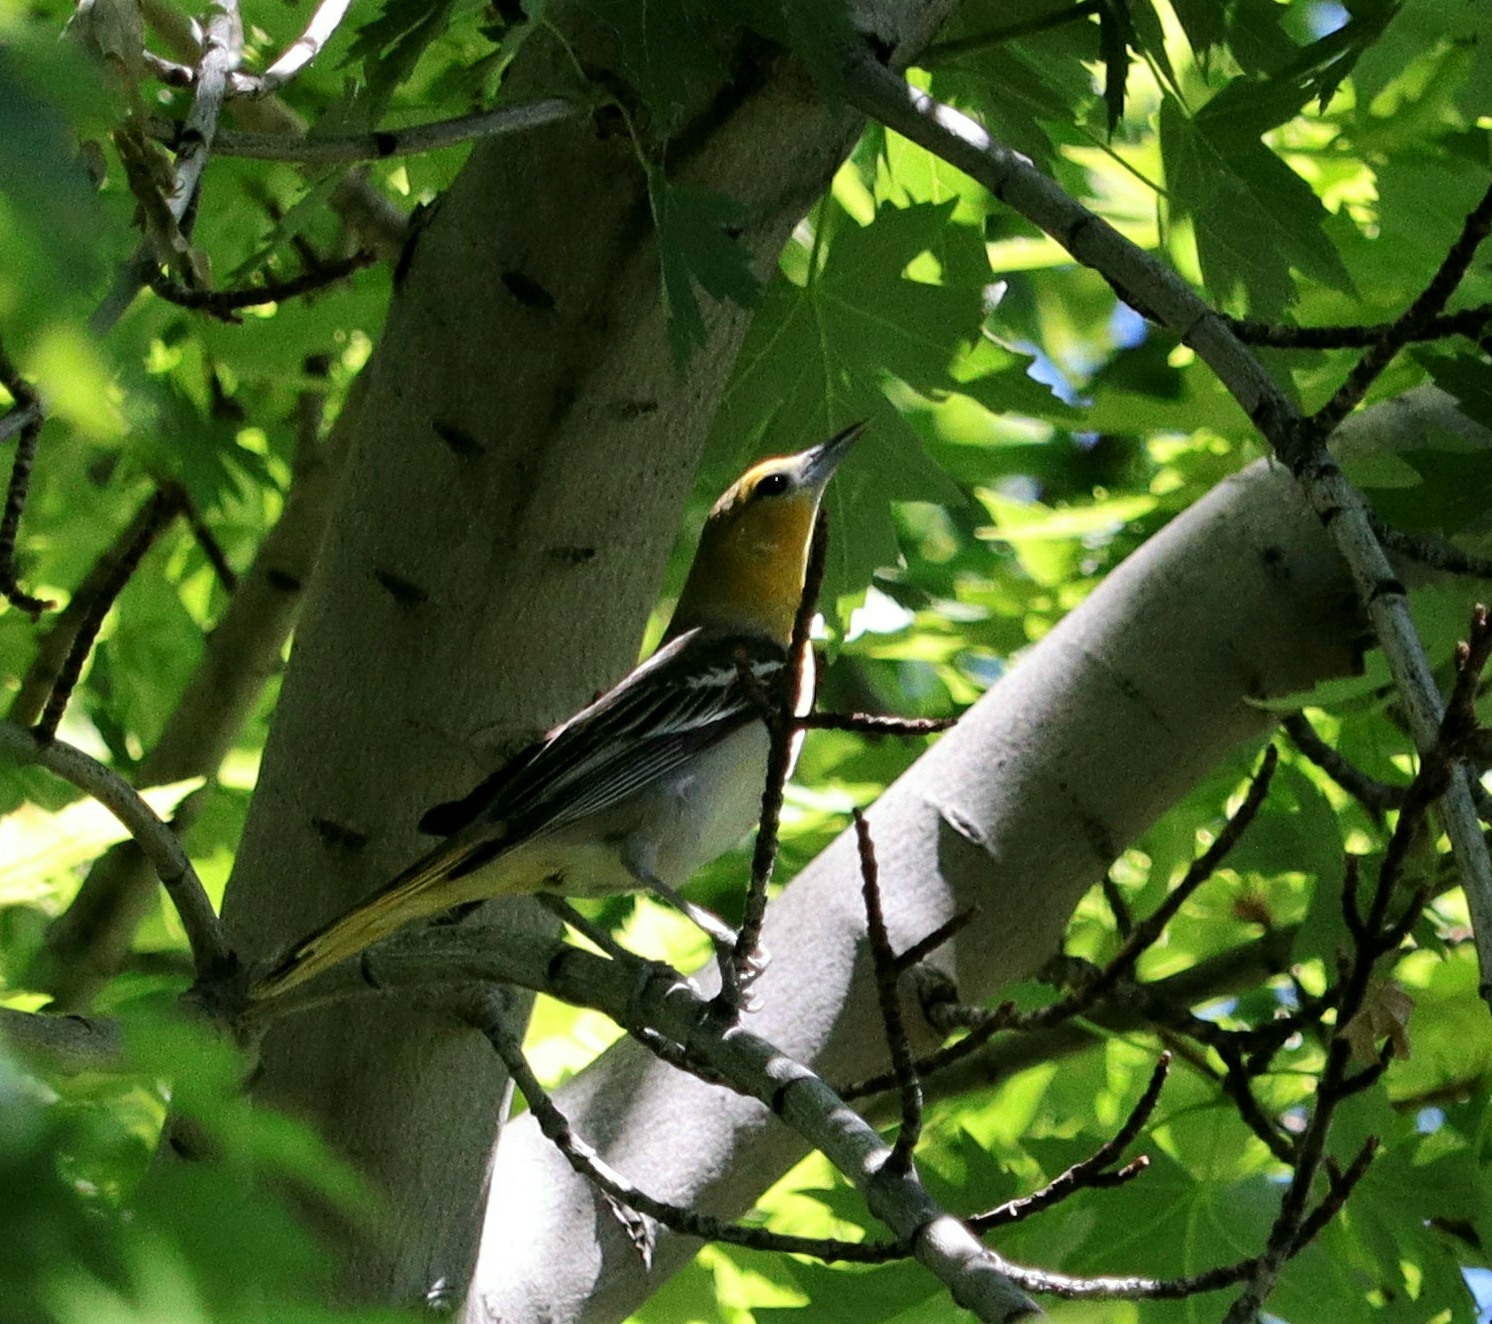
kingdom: Animalia
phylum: Chordata
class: Aves
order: Passeriformes
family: Icteridae
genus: Icterus
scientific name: Icterus bullockii
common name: Bullock's oriole
